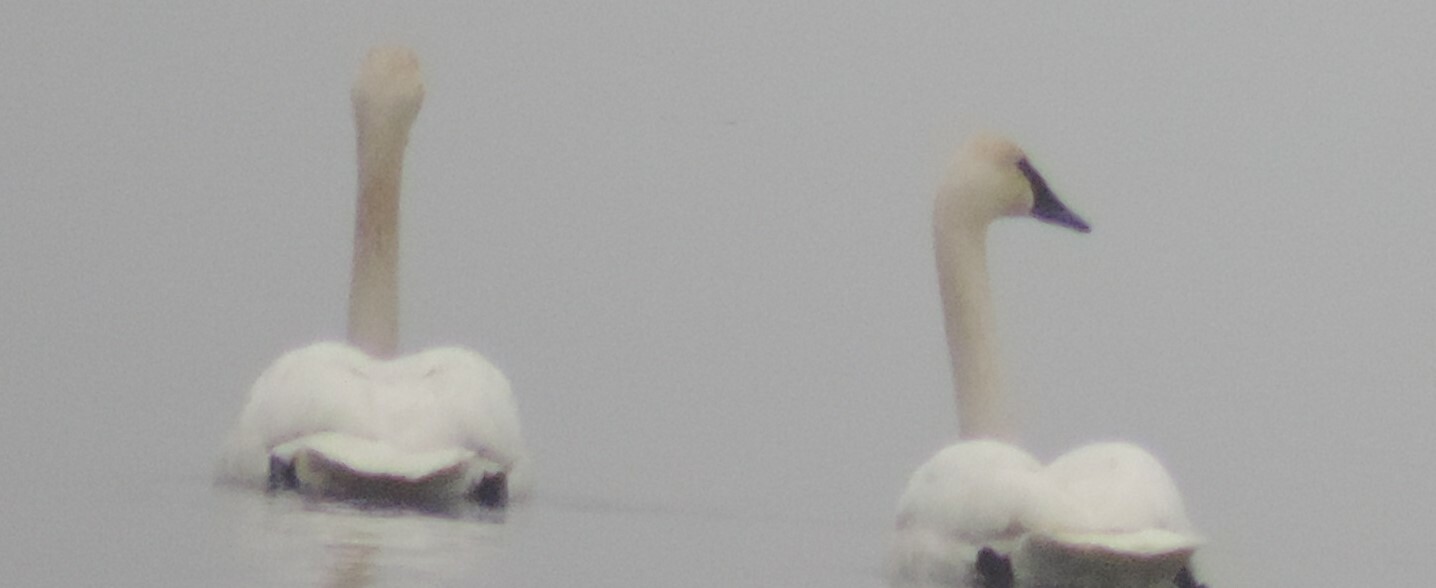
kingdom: Animalia
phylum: Chordata
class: Aves
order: Anseriformes
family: Anatidae
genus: Cygnus
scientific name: Cygnus buccinator
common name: Trumpeter swan
